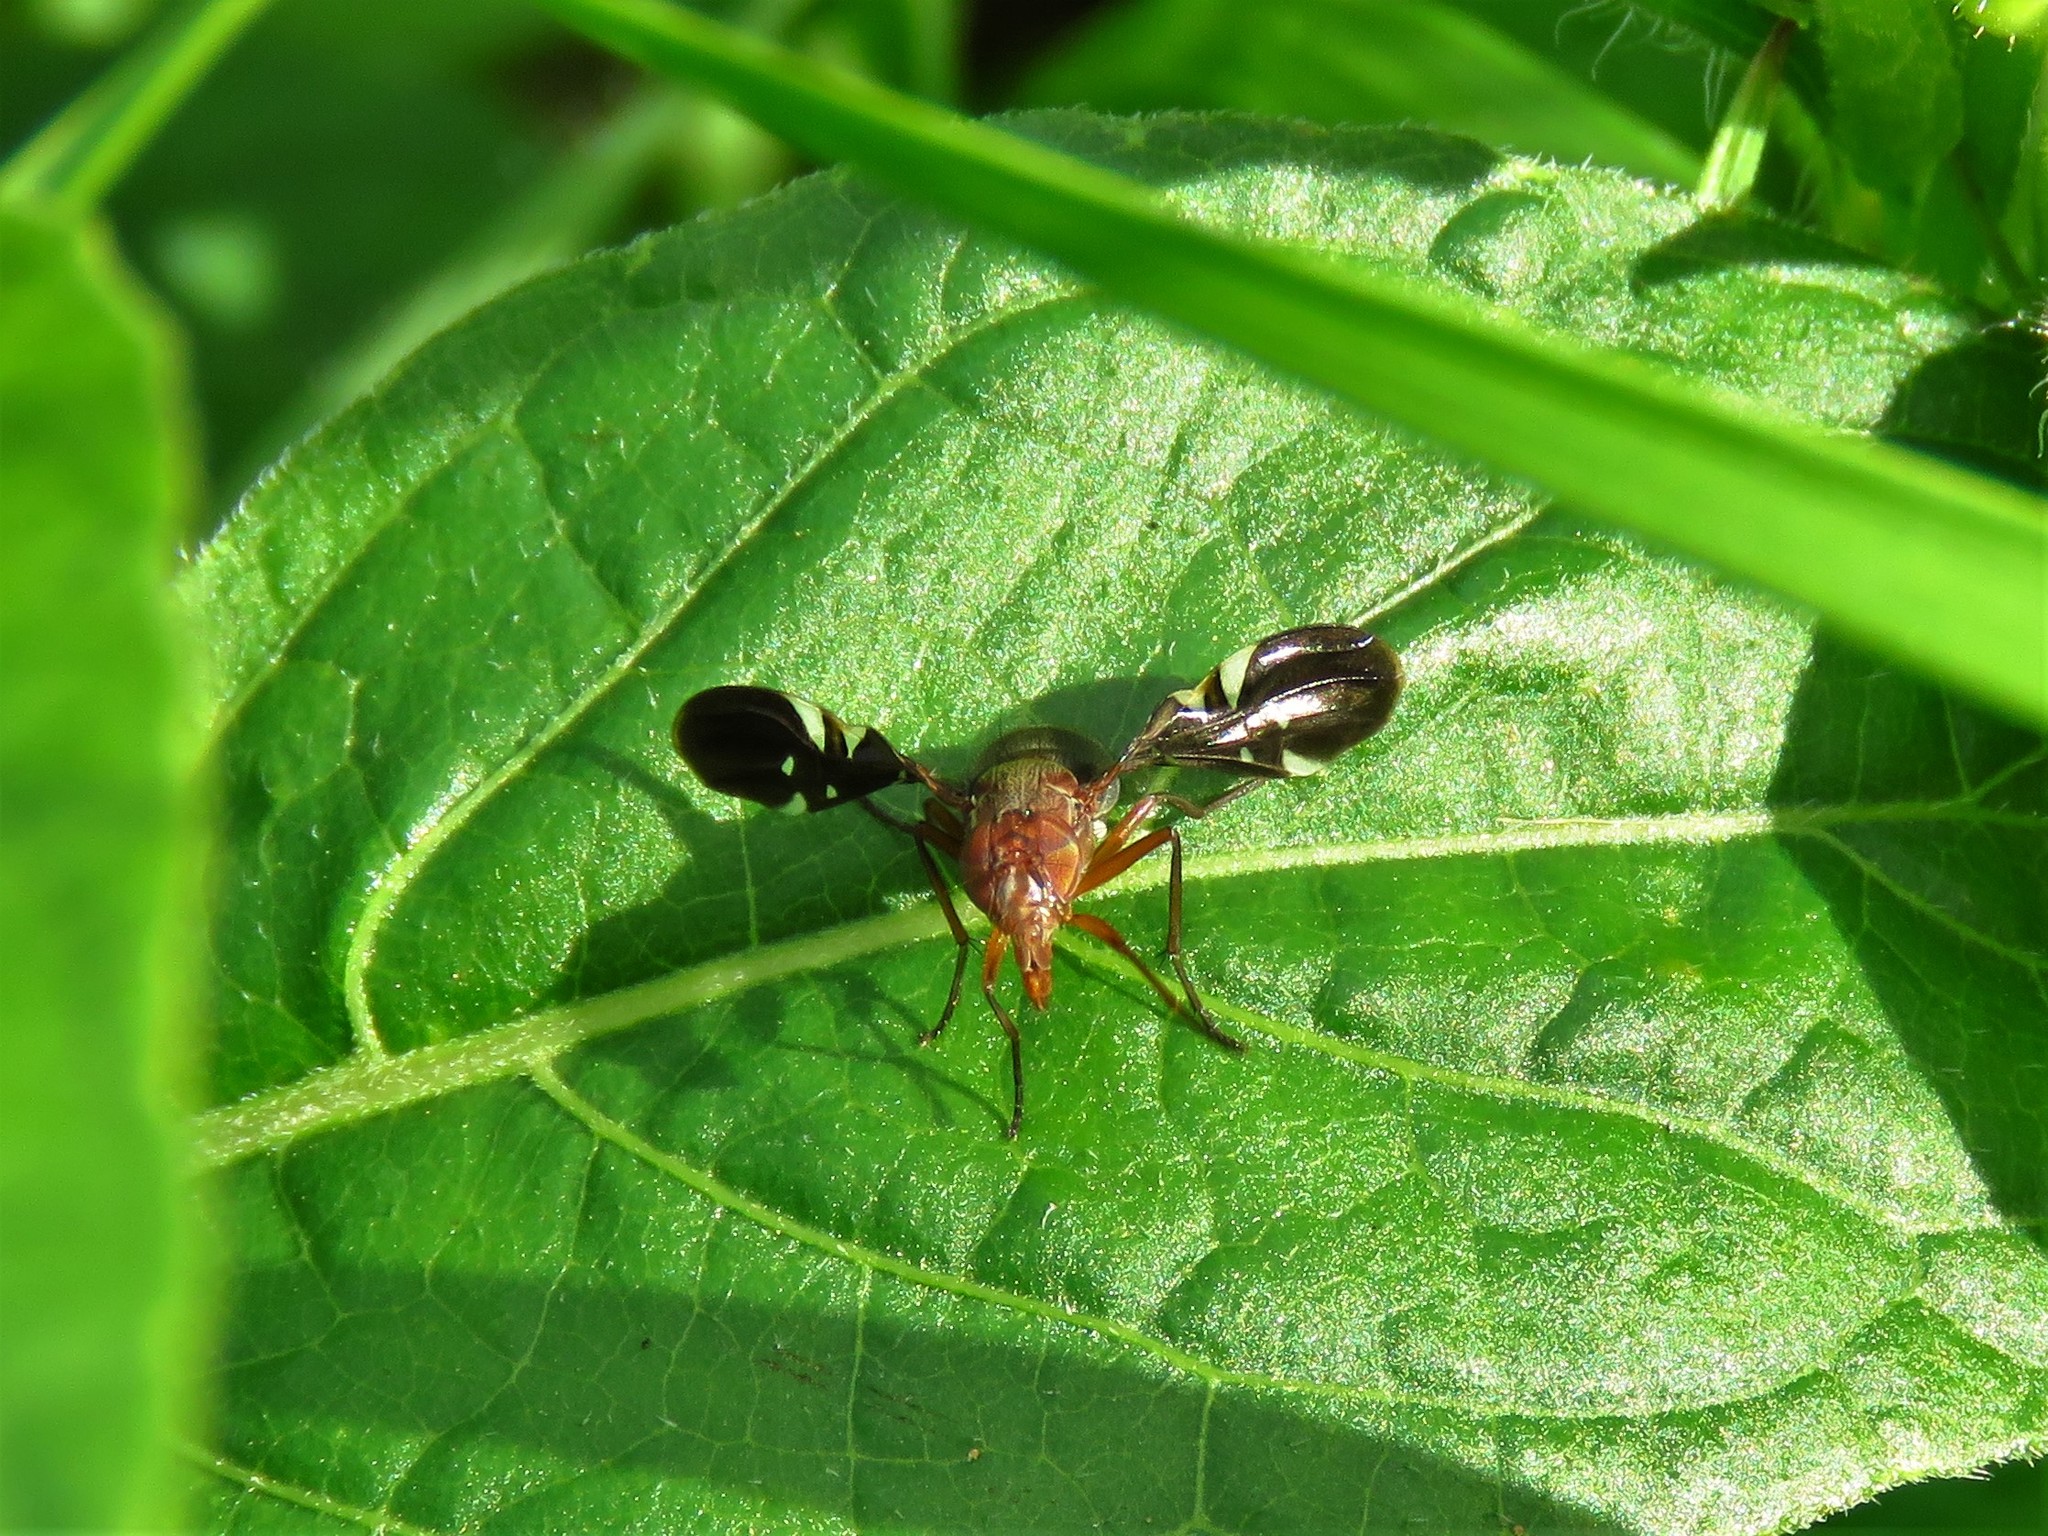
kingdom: Animalia
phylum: Arthropoda
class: Insecta
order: Diptera
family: Ulidiidae
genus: Delphinia
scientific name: Delphinia picta
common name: Common picture-winged fly
